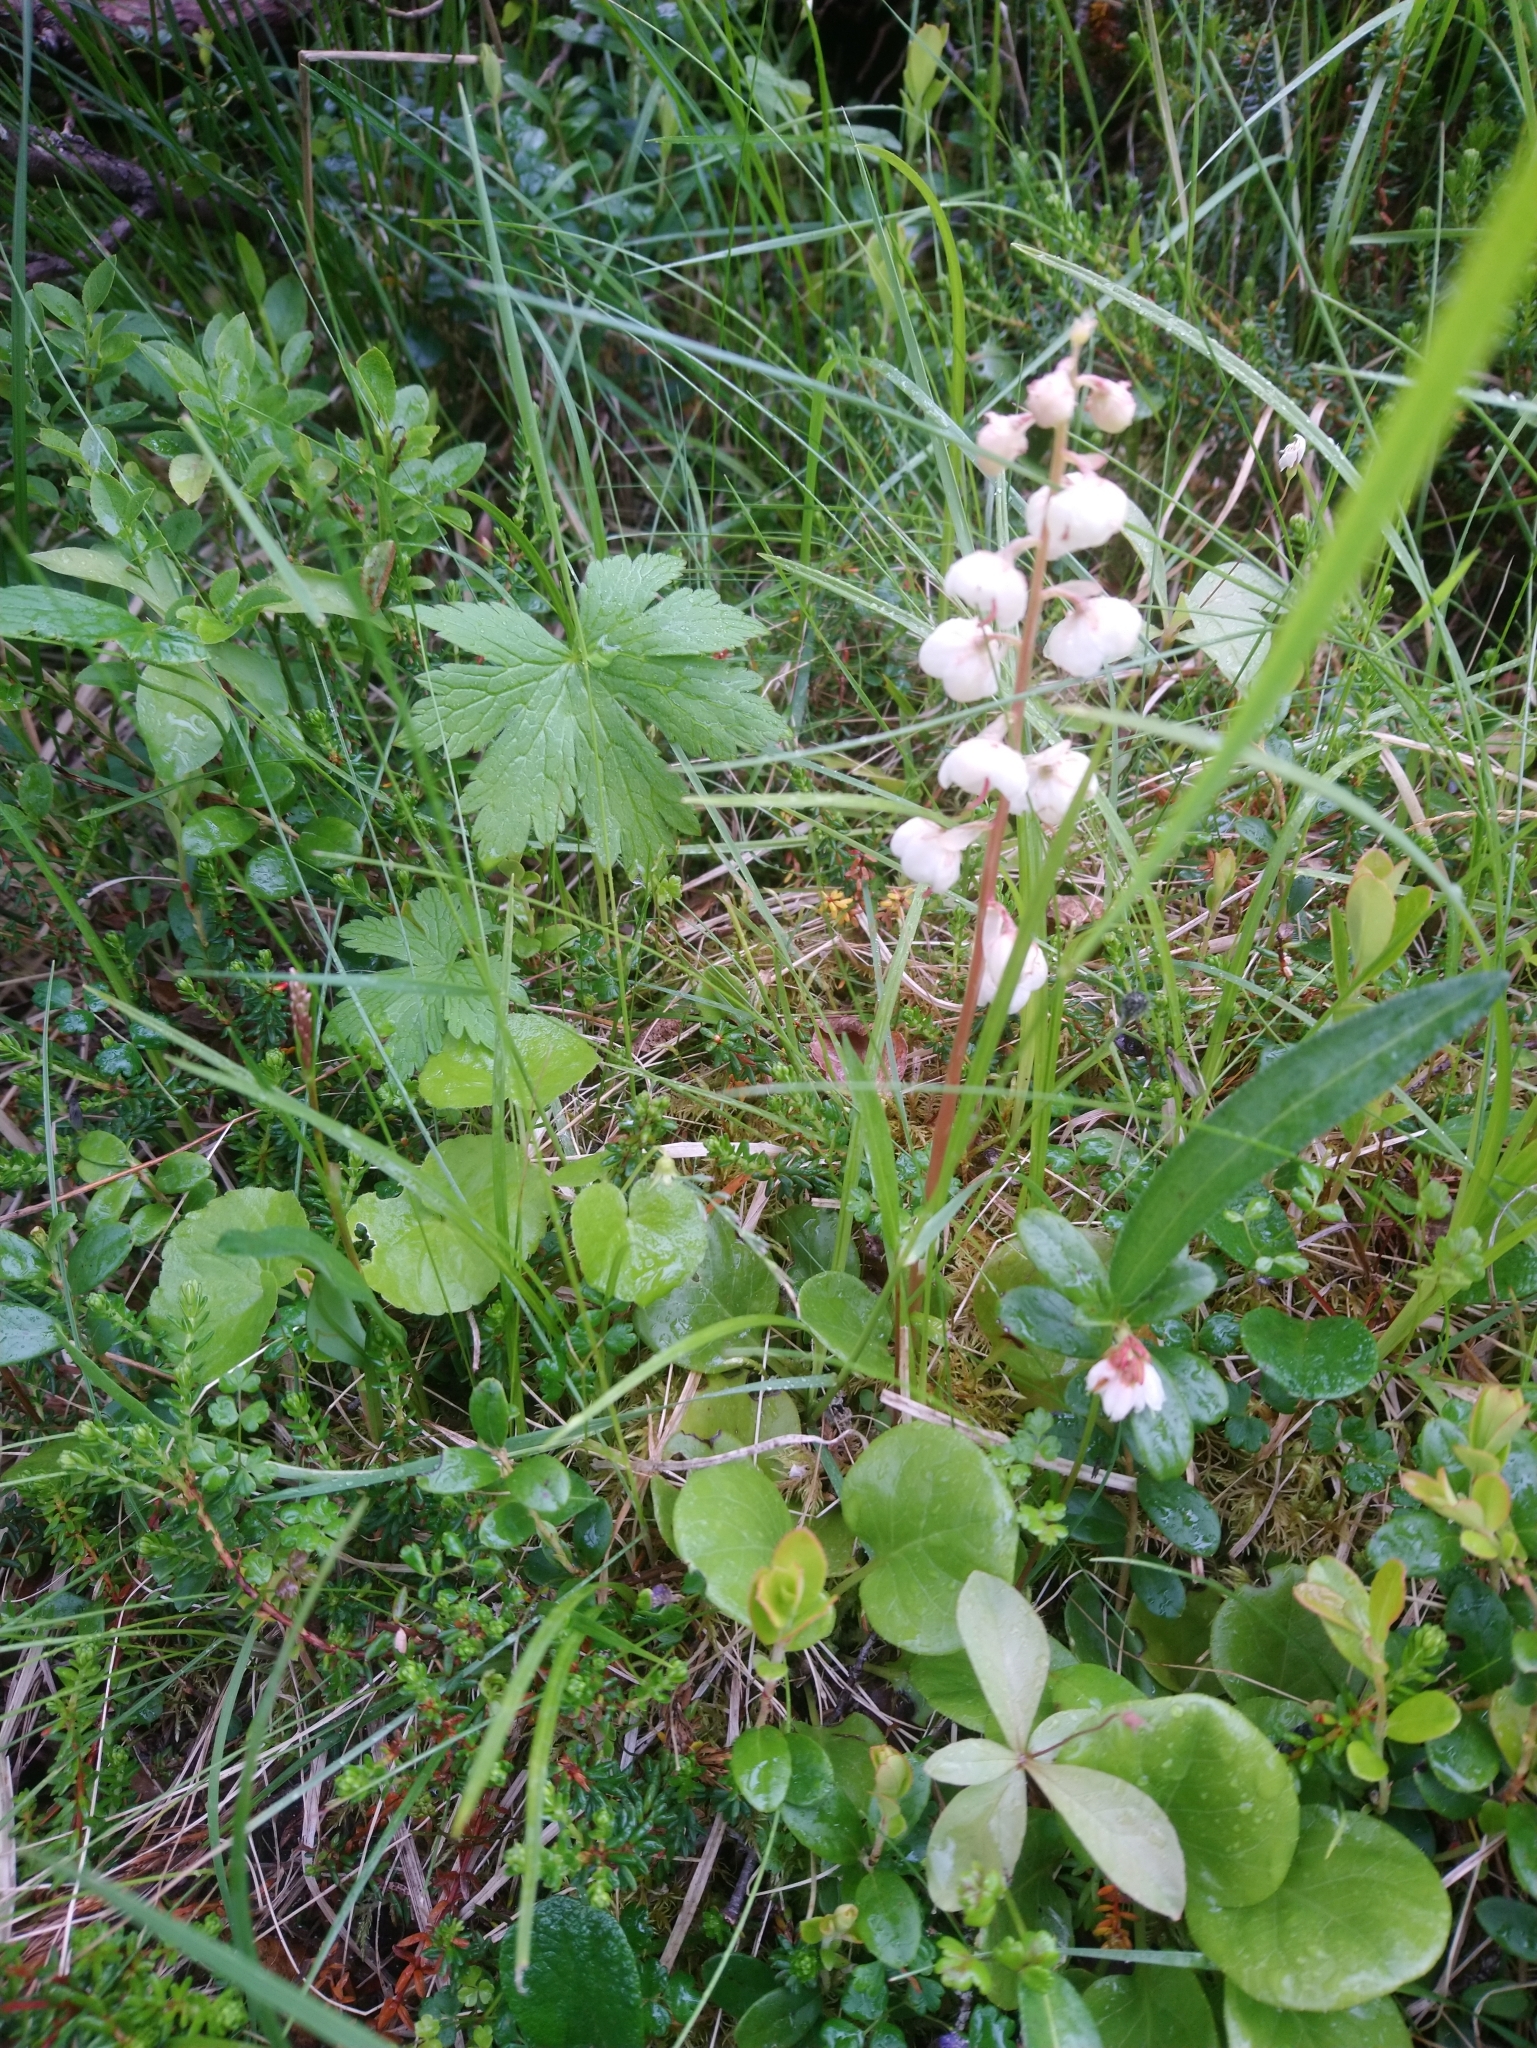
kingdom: Plantae
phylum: Tracheophyta
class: Magnoliopsida
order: Ericales
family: Ericaceae
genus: Pyrola
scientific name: Pyrola rotundifolia
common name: Round-leaved wintergreen
